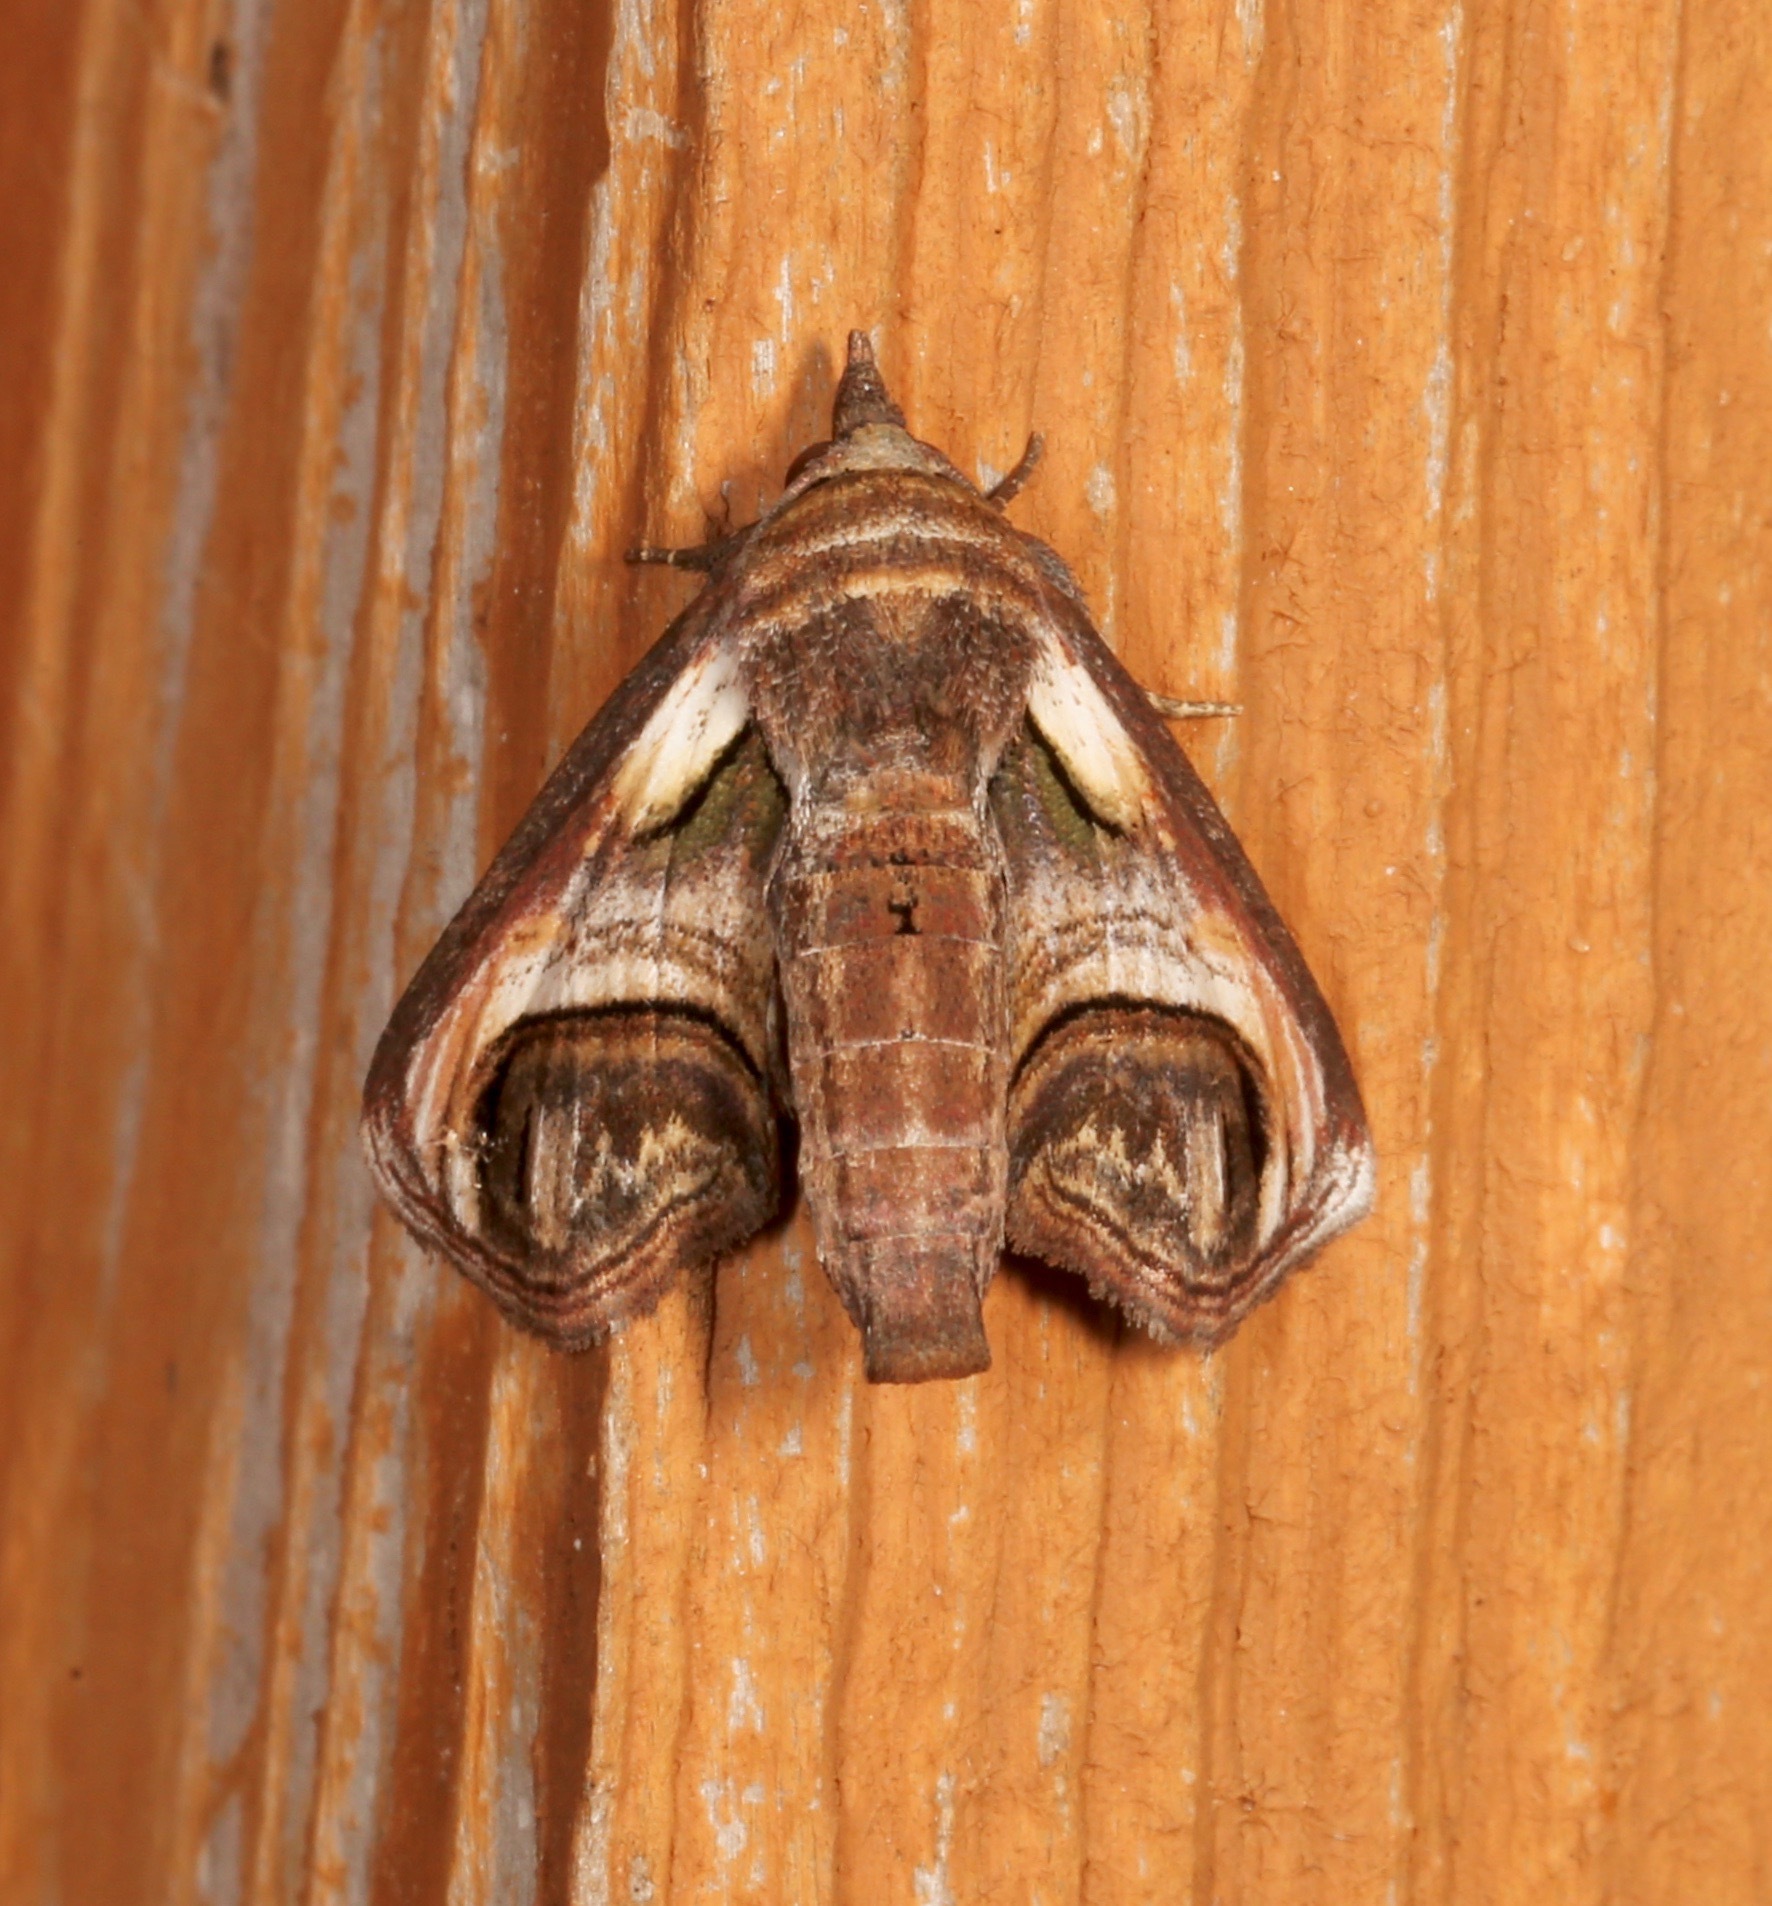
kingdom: Animalia
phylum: Arthropoda
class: Insecta
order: Lepidoptera
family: Euteliidae
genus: Paectes
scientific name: Paectes oculatrix
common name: Eyed paectes moth
